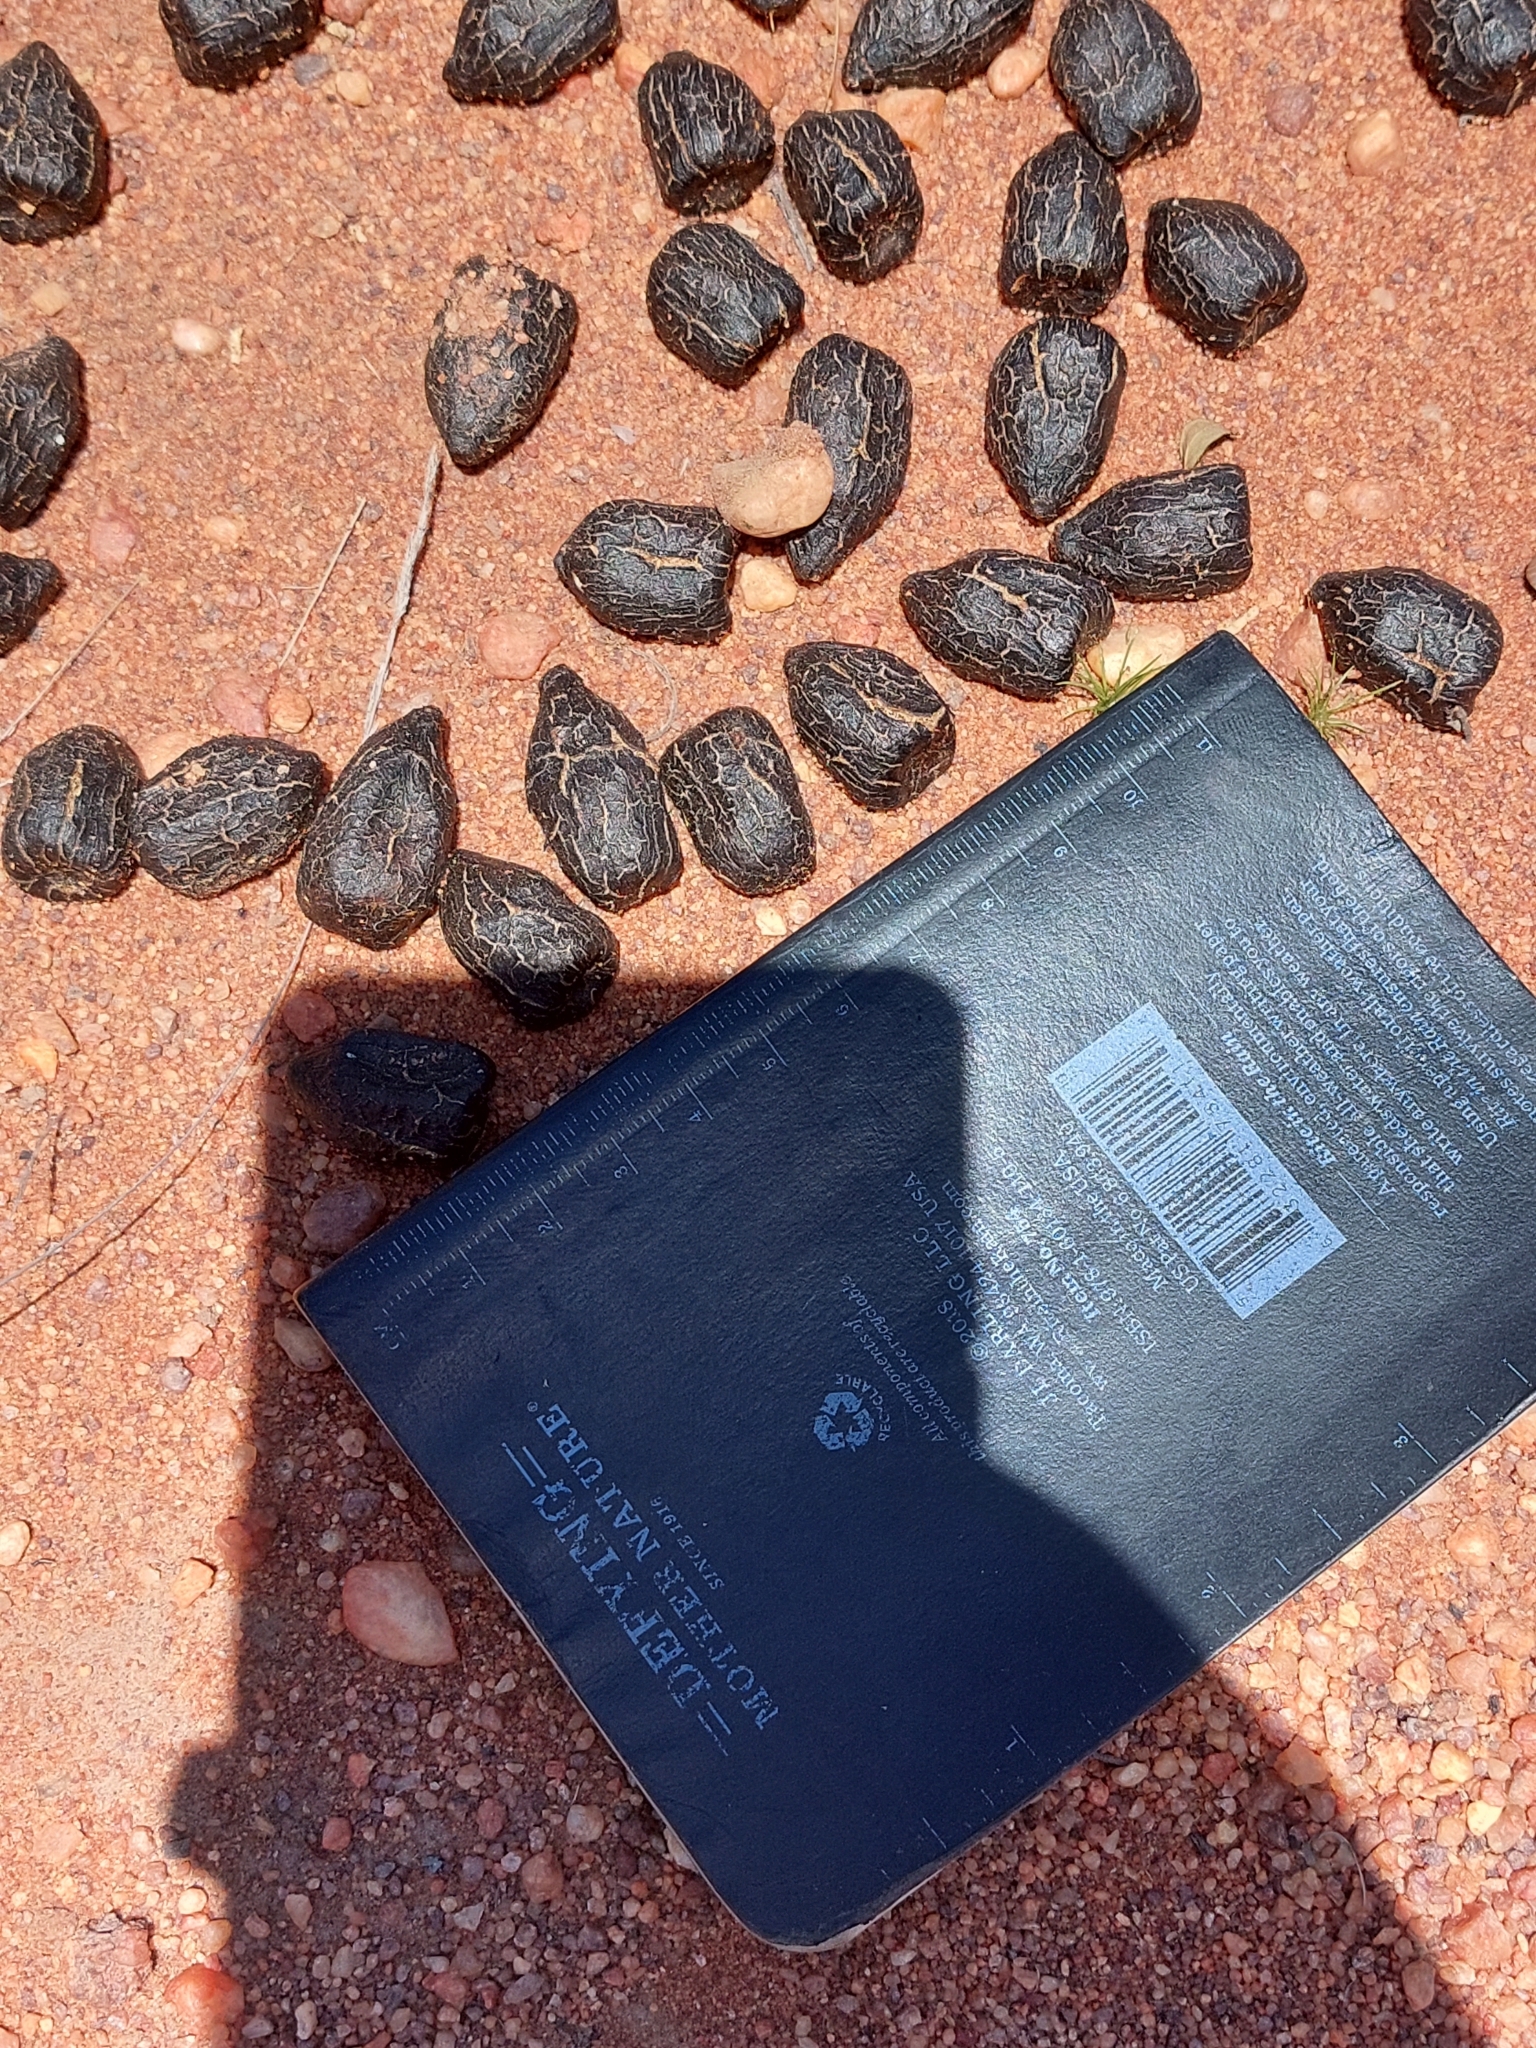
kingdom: Animalia
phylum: Chordata
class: Mammalia
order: Artiodactyla
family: Bovidae
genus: Tragelaphus
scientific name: Tragelaphus strepsiceros
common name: Greater kudu
